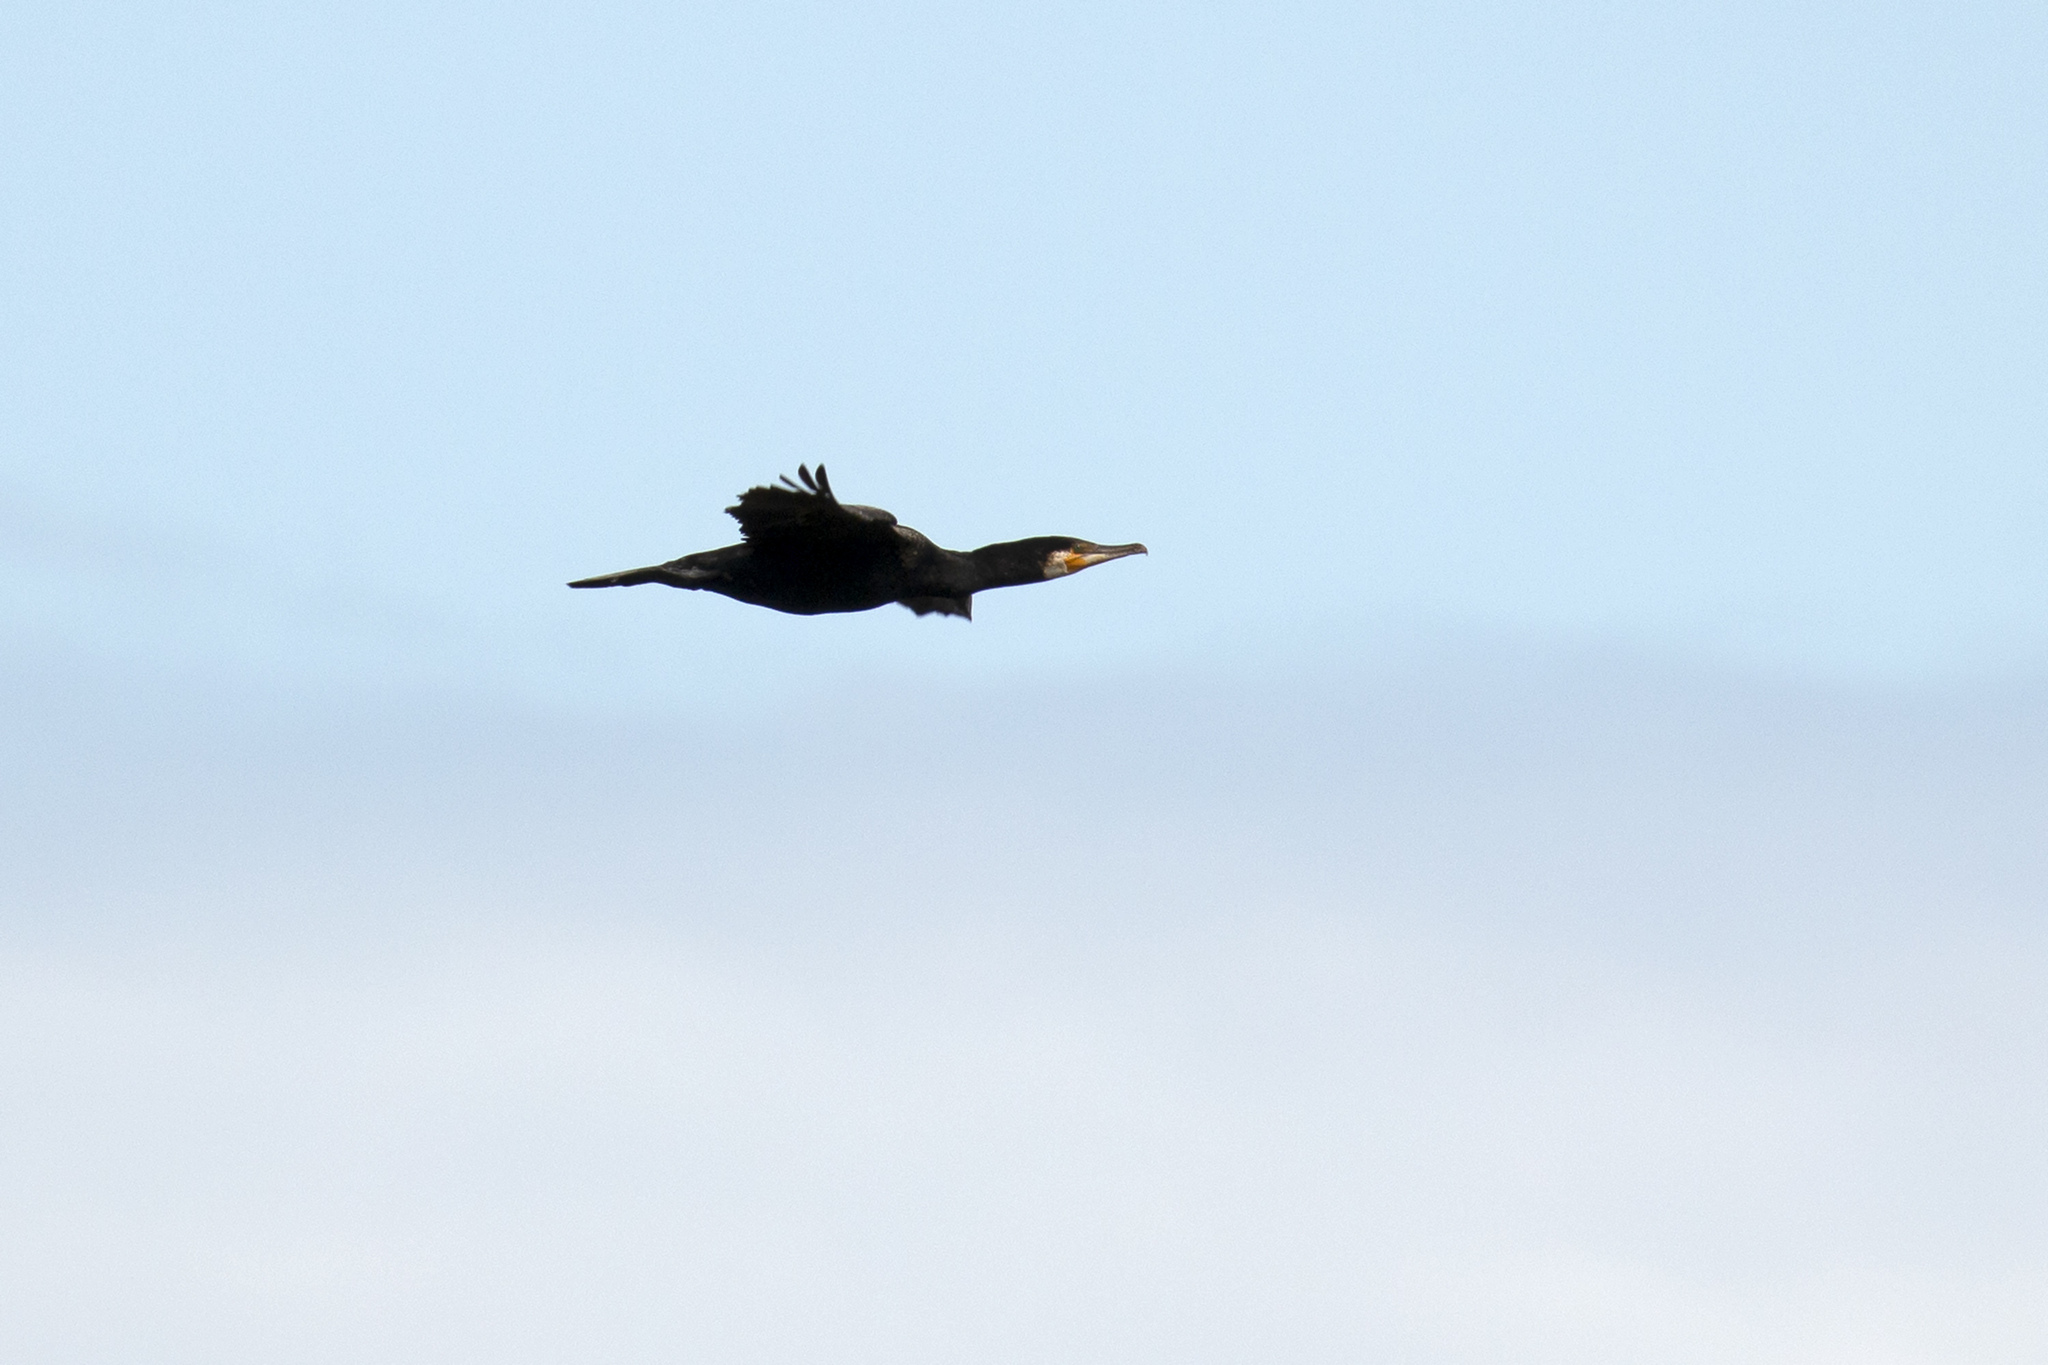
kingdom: Animalia
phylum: Chordata
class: Aves
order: Suliformes
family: Phalacrocoracidae
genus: Phalacrocorax
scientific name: Phalacrocorax carbo
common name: Great cormorant
